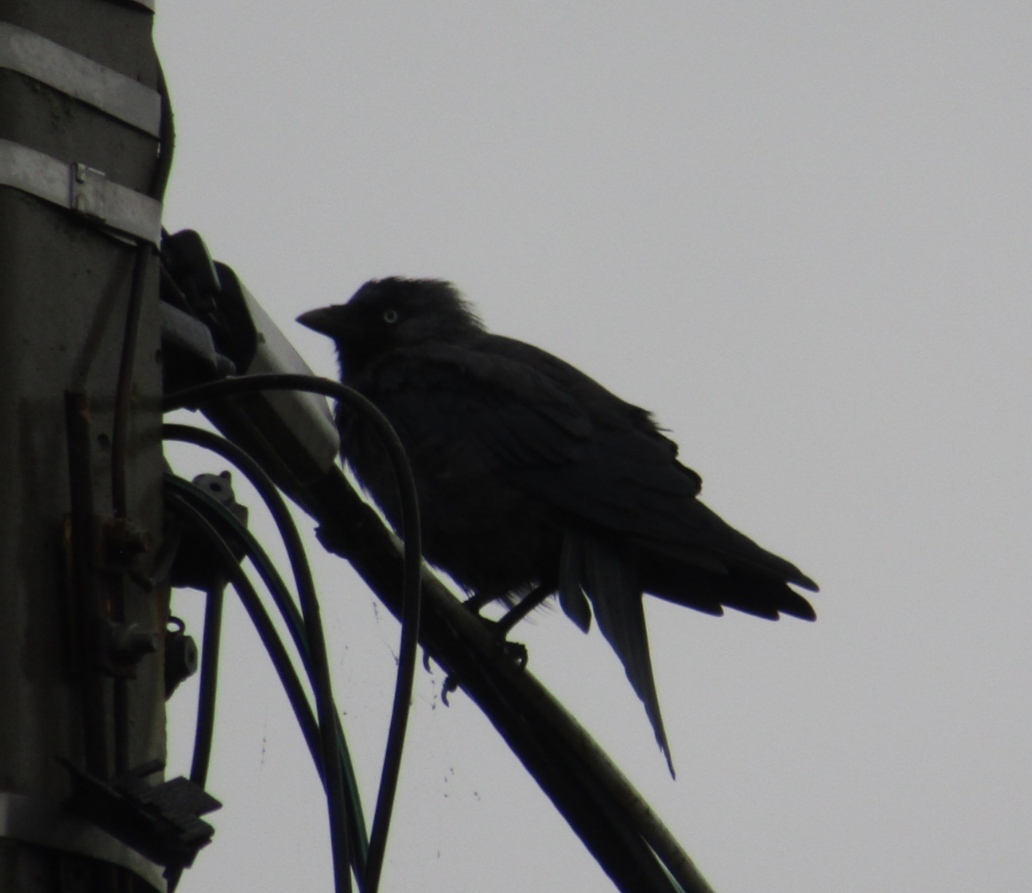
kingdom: Animalia
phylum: Chordata
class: Aves
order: Passeriformes
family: Corvidae
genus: Coloeus
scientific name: Coloeus monedula
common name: Western jackdaw
